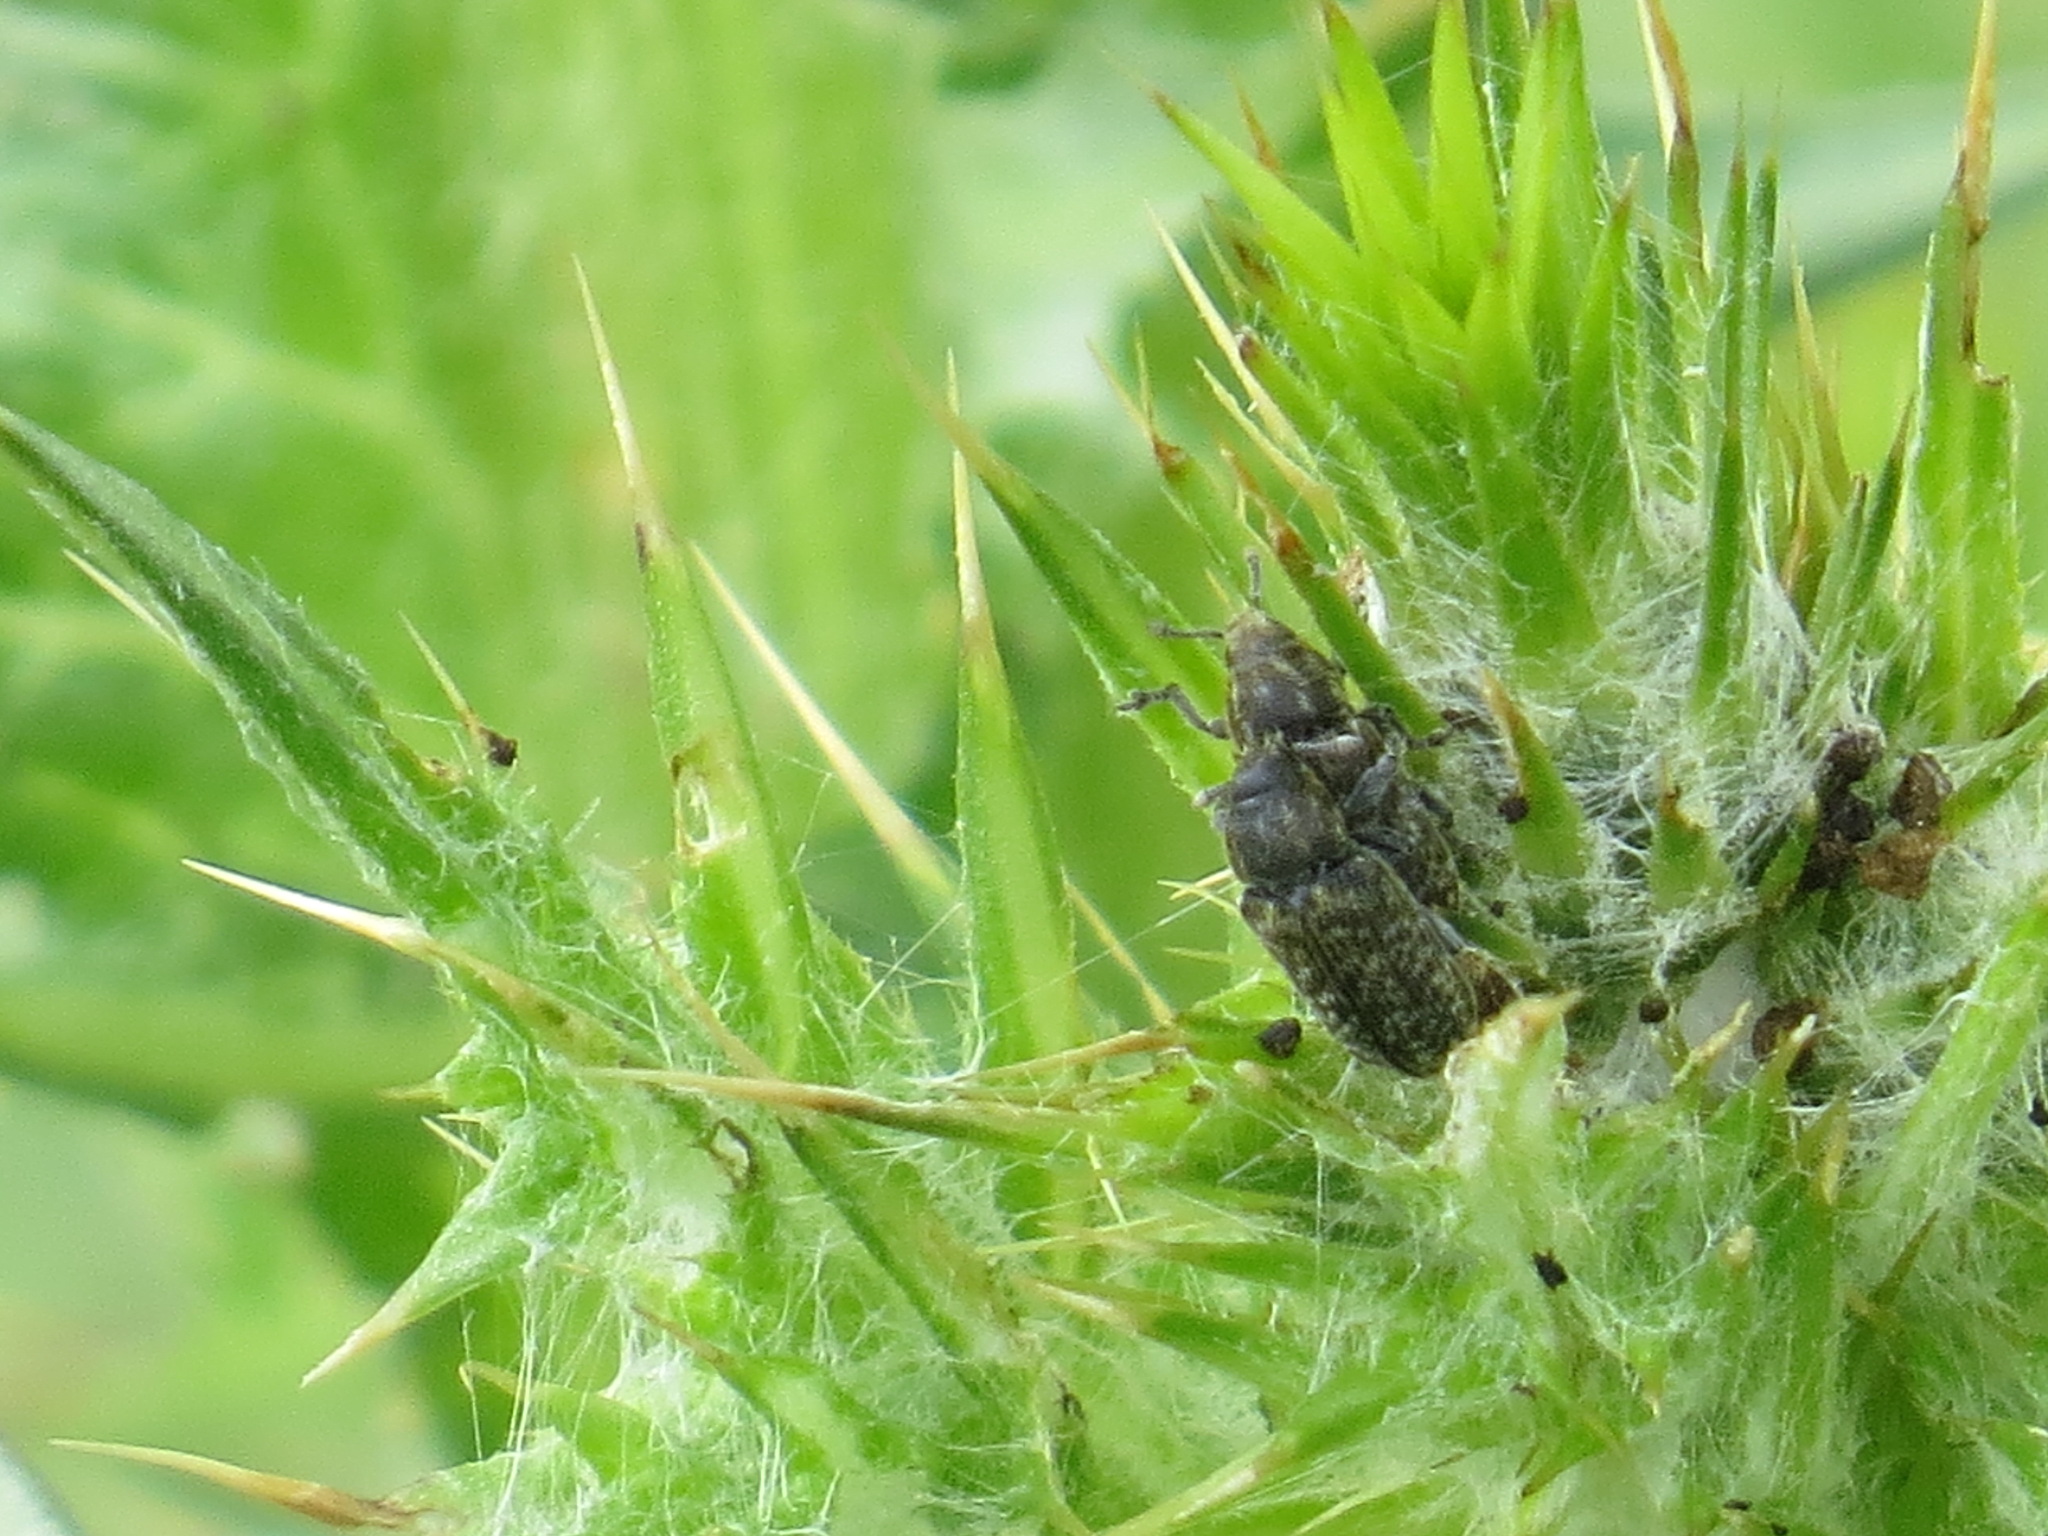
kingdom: Animalia
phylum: Arthropoda
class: Insecta
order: Coleoptera
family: Curculionidae
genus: Rhinocyllus
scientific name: Rhinocyllus conicus
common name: Weevil
